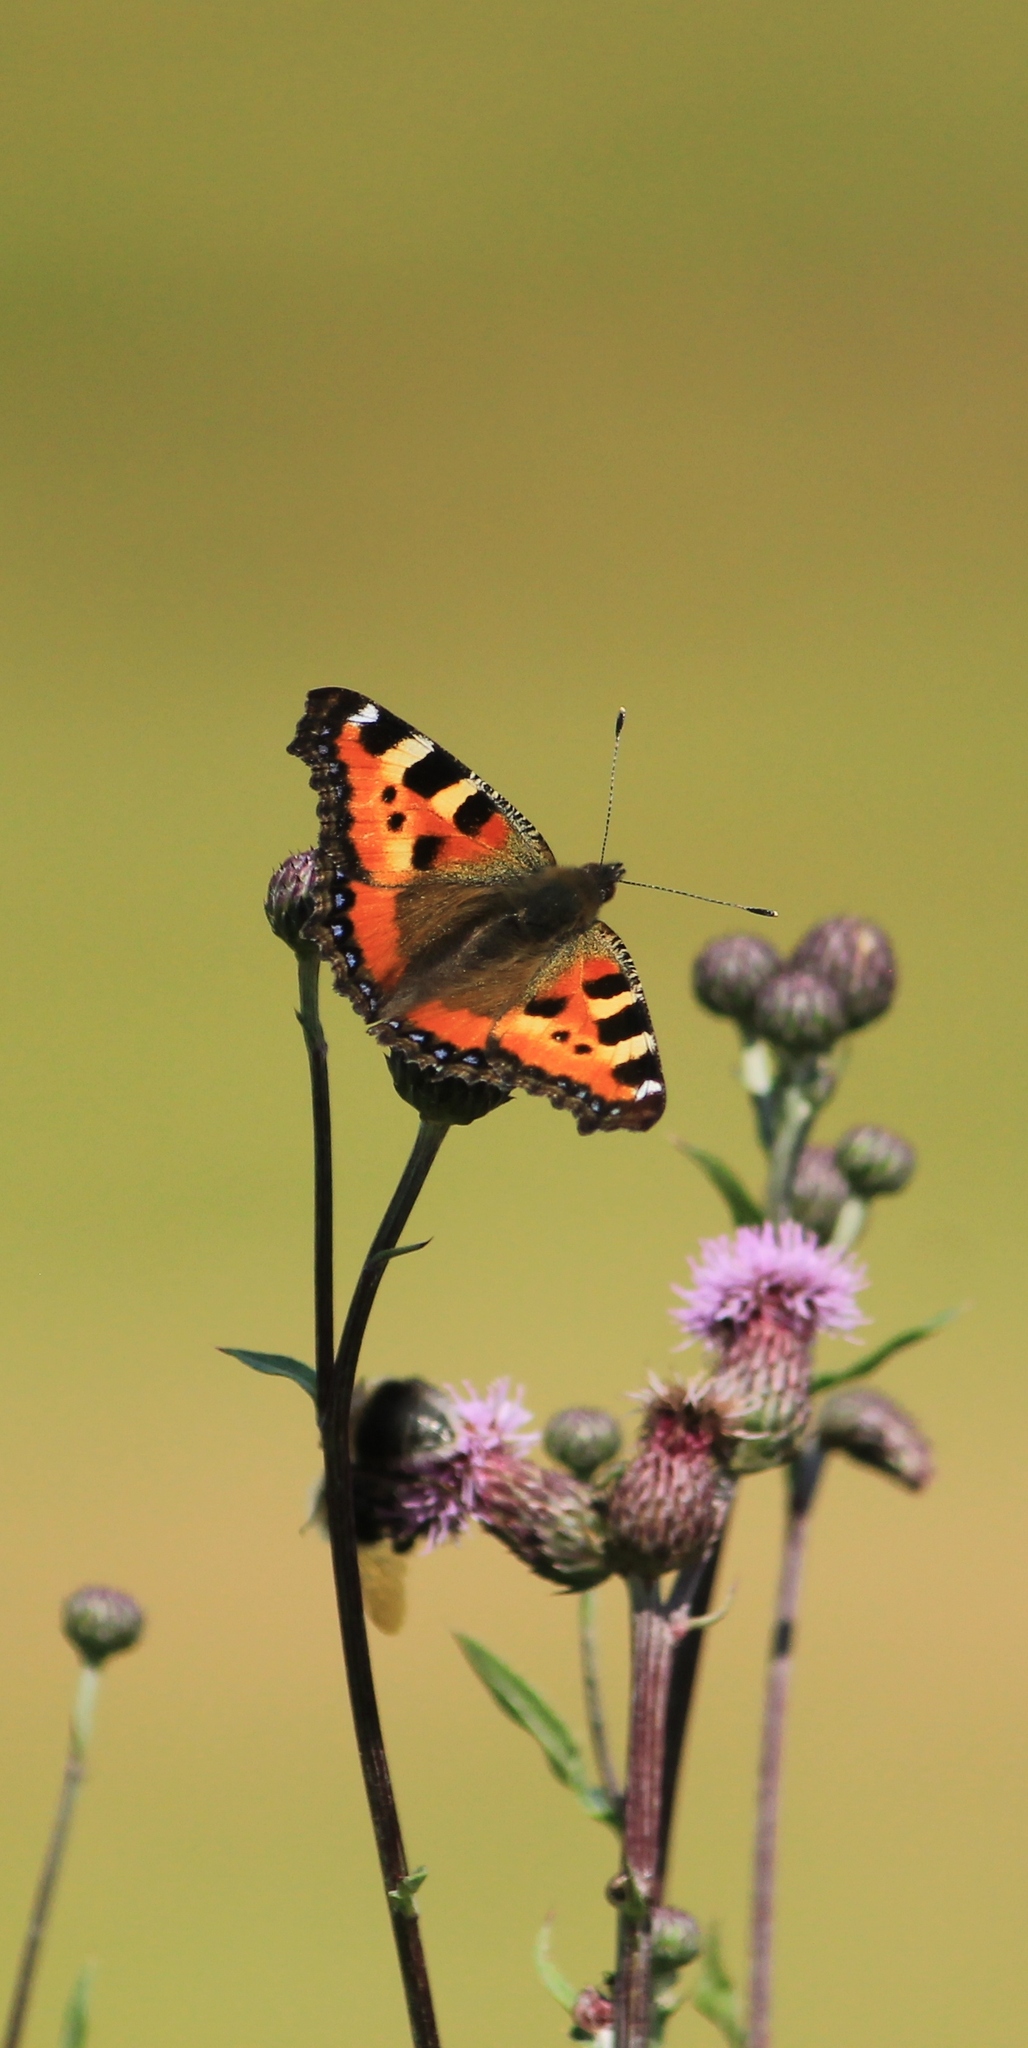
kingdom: Animalia
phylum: Arthropoda
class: Insecta
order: Lepidoptera
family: Nymphalidae
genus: Aglais
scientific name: Aglais urticae
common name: Small tortoiseshell
